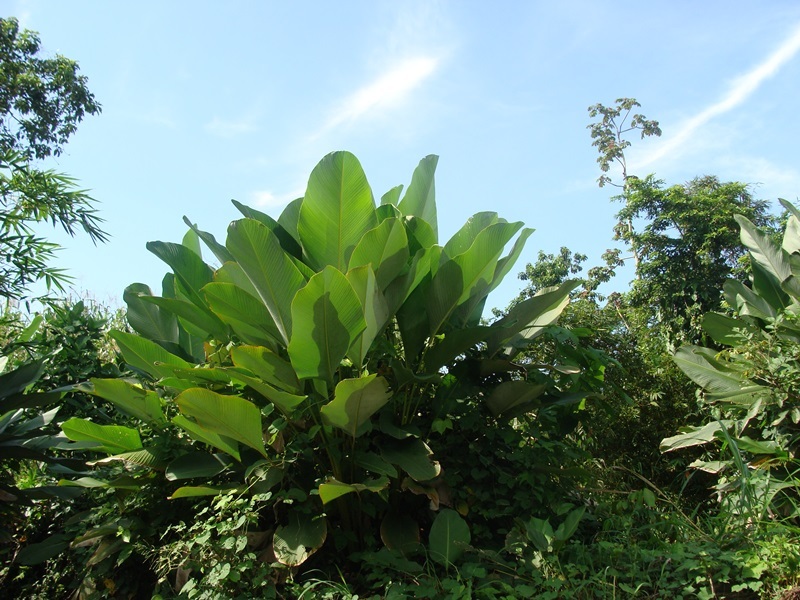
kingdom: Plantae
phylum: Tracheophyta
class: Liliopsida
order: Zingiberales
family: Marantaceae
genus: Calathea
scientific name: Calathea lutea
